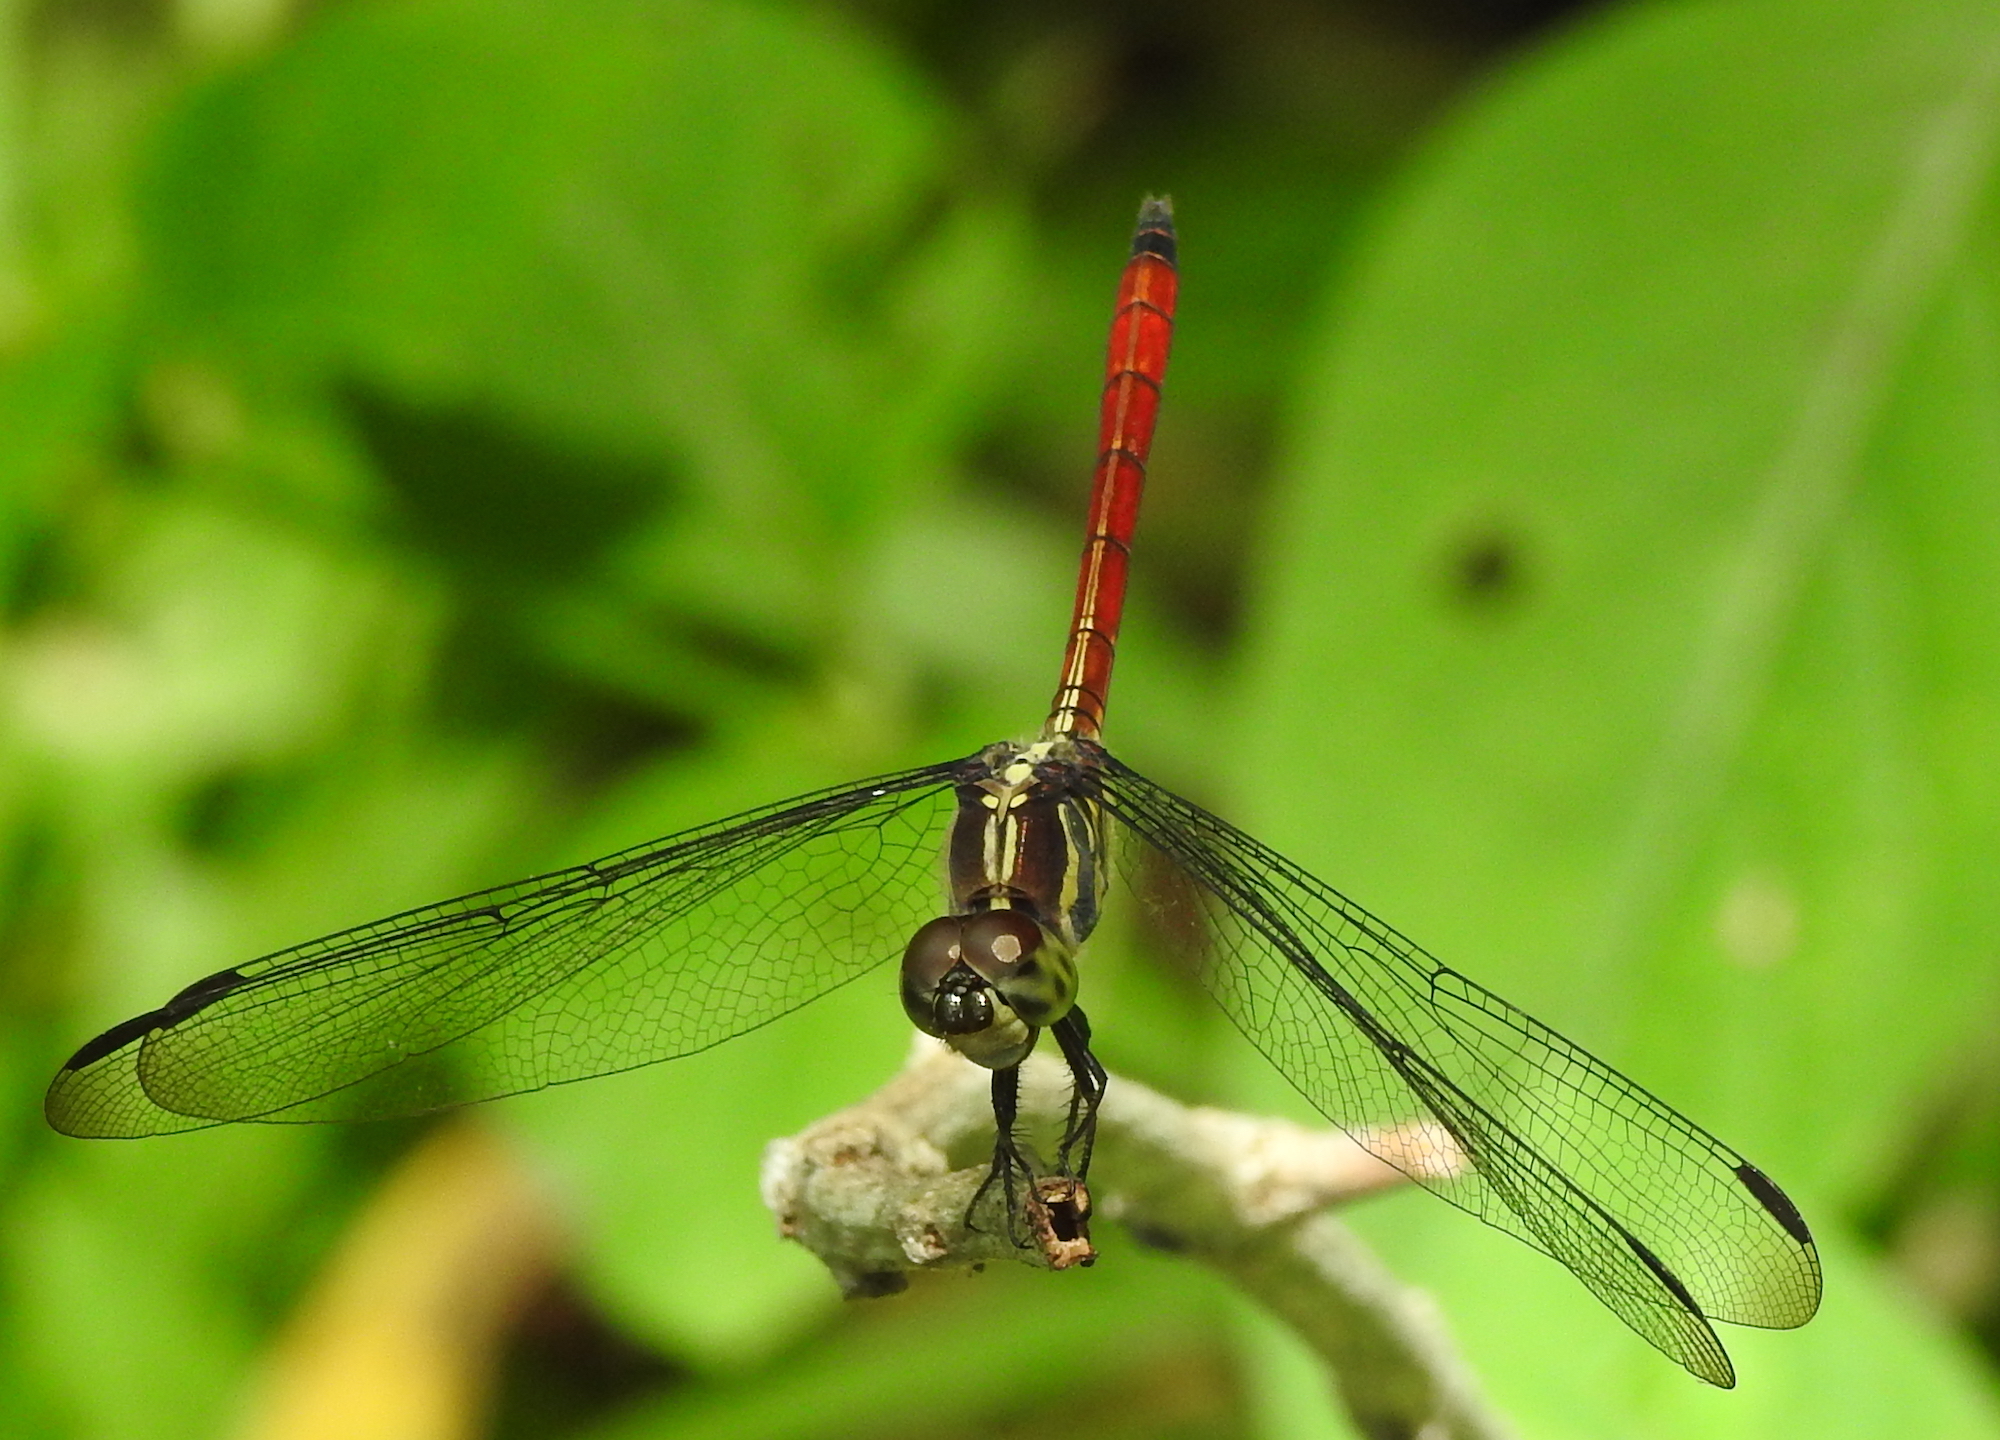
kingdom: Animalia
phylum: Arthropoda
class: Insecta
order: Odonata
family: Libellulidae
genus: Lathrecista
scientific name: Lathrecista asiatica
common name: Scarlet grenadier
